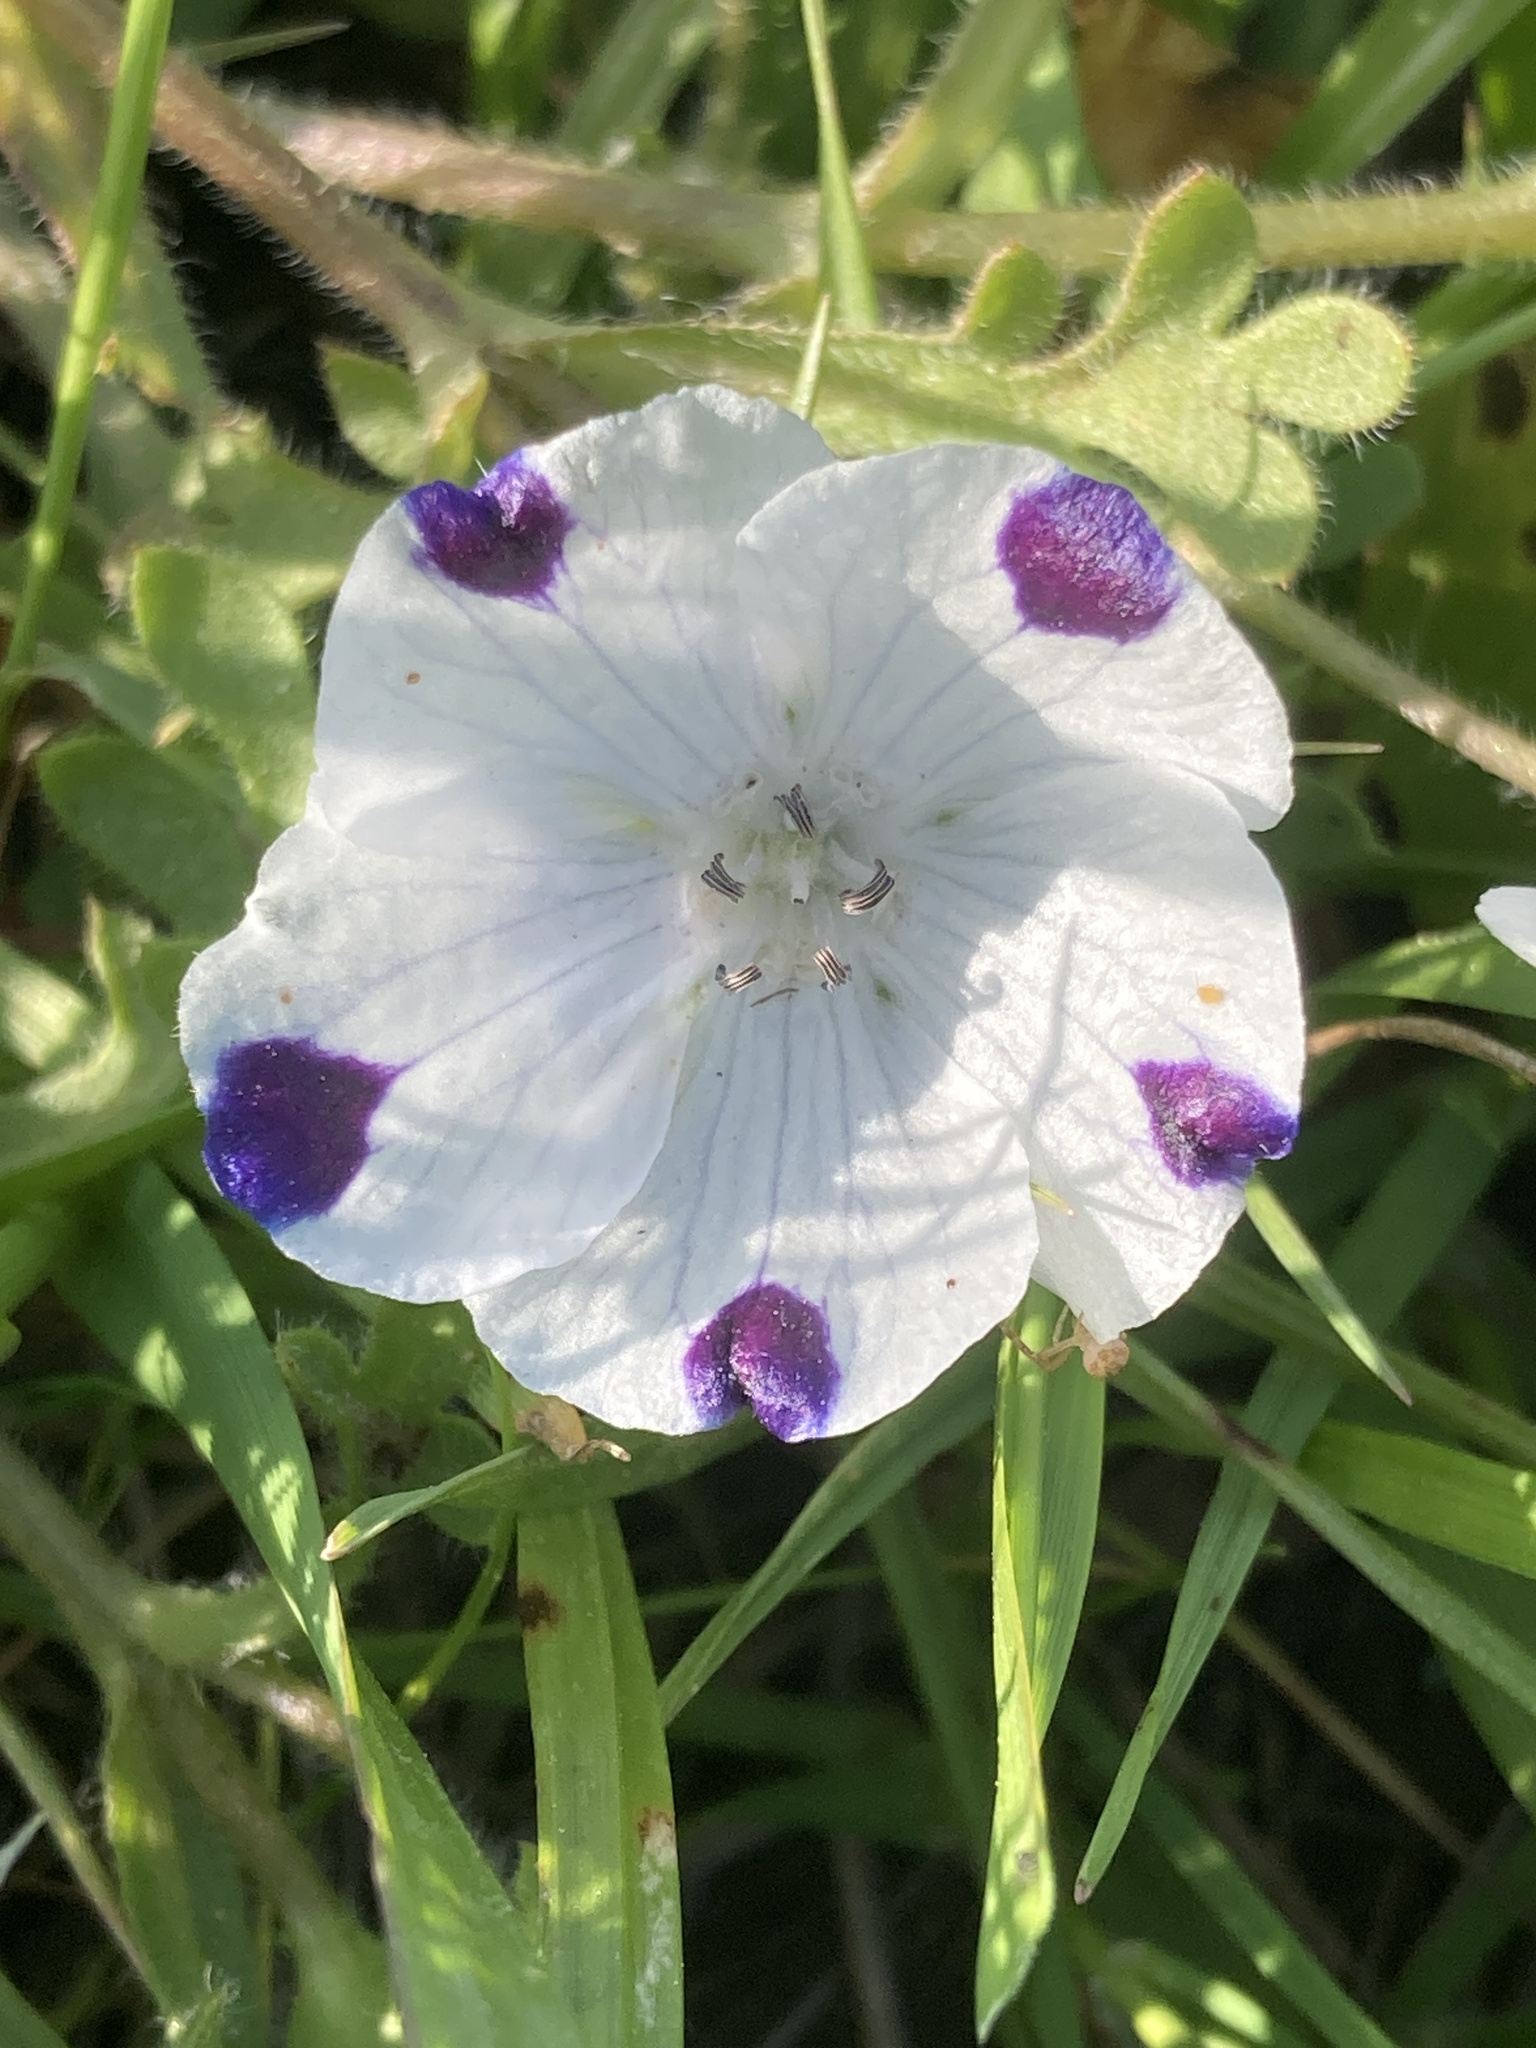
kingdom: Plantae
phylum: Tracheophyta
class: Magnoliopsida
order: Boraginales
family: Hydrophyllaceae
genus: Nemophila
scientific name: Nemophila maculata
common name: Fivespot
